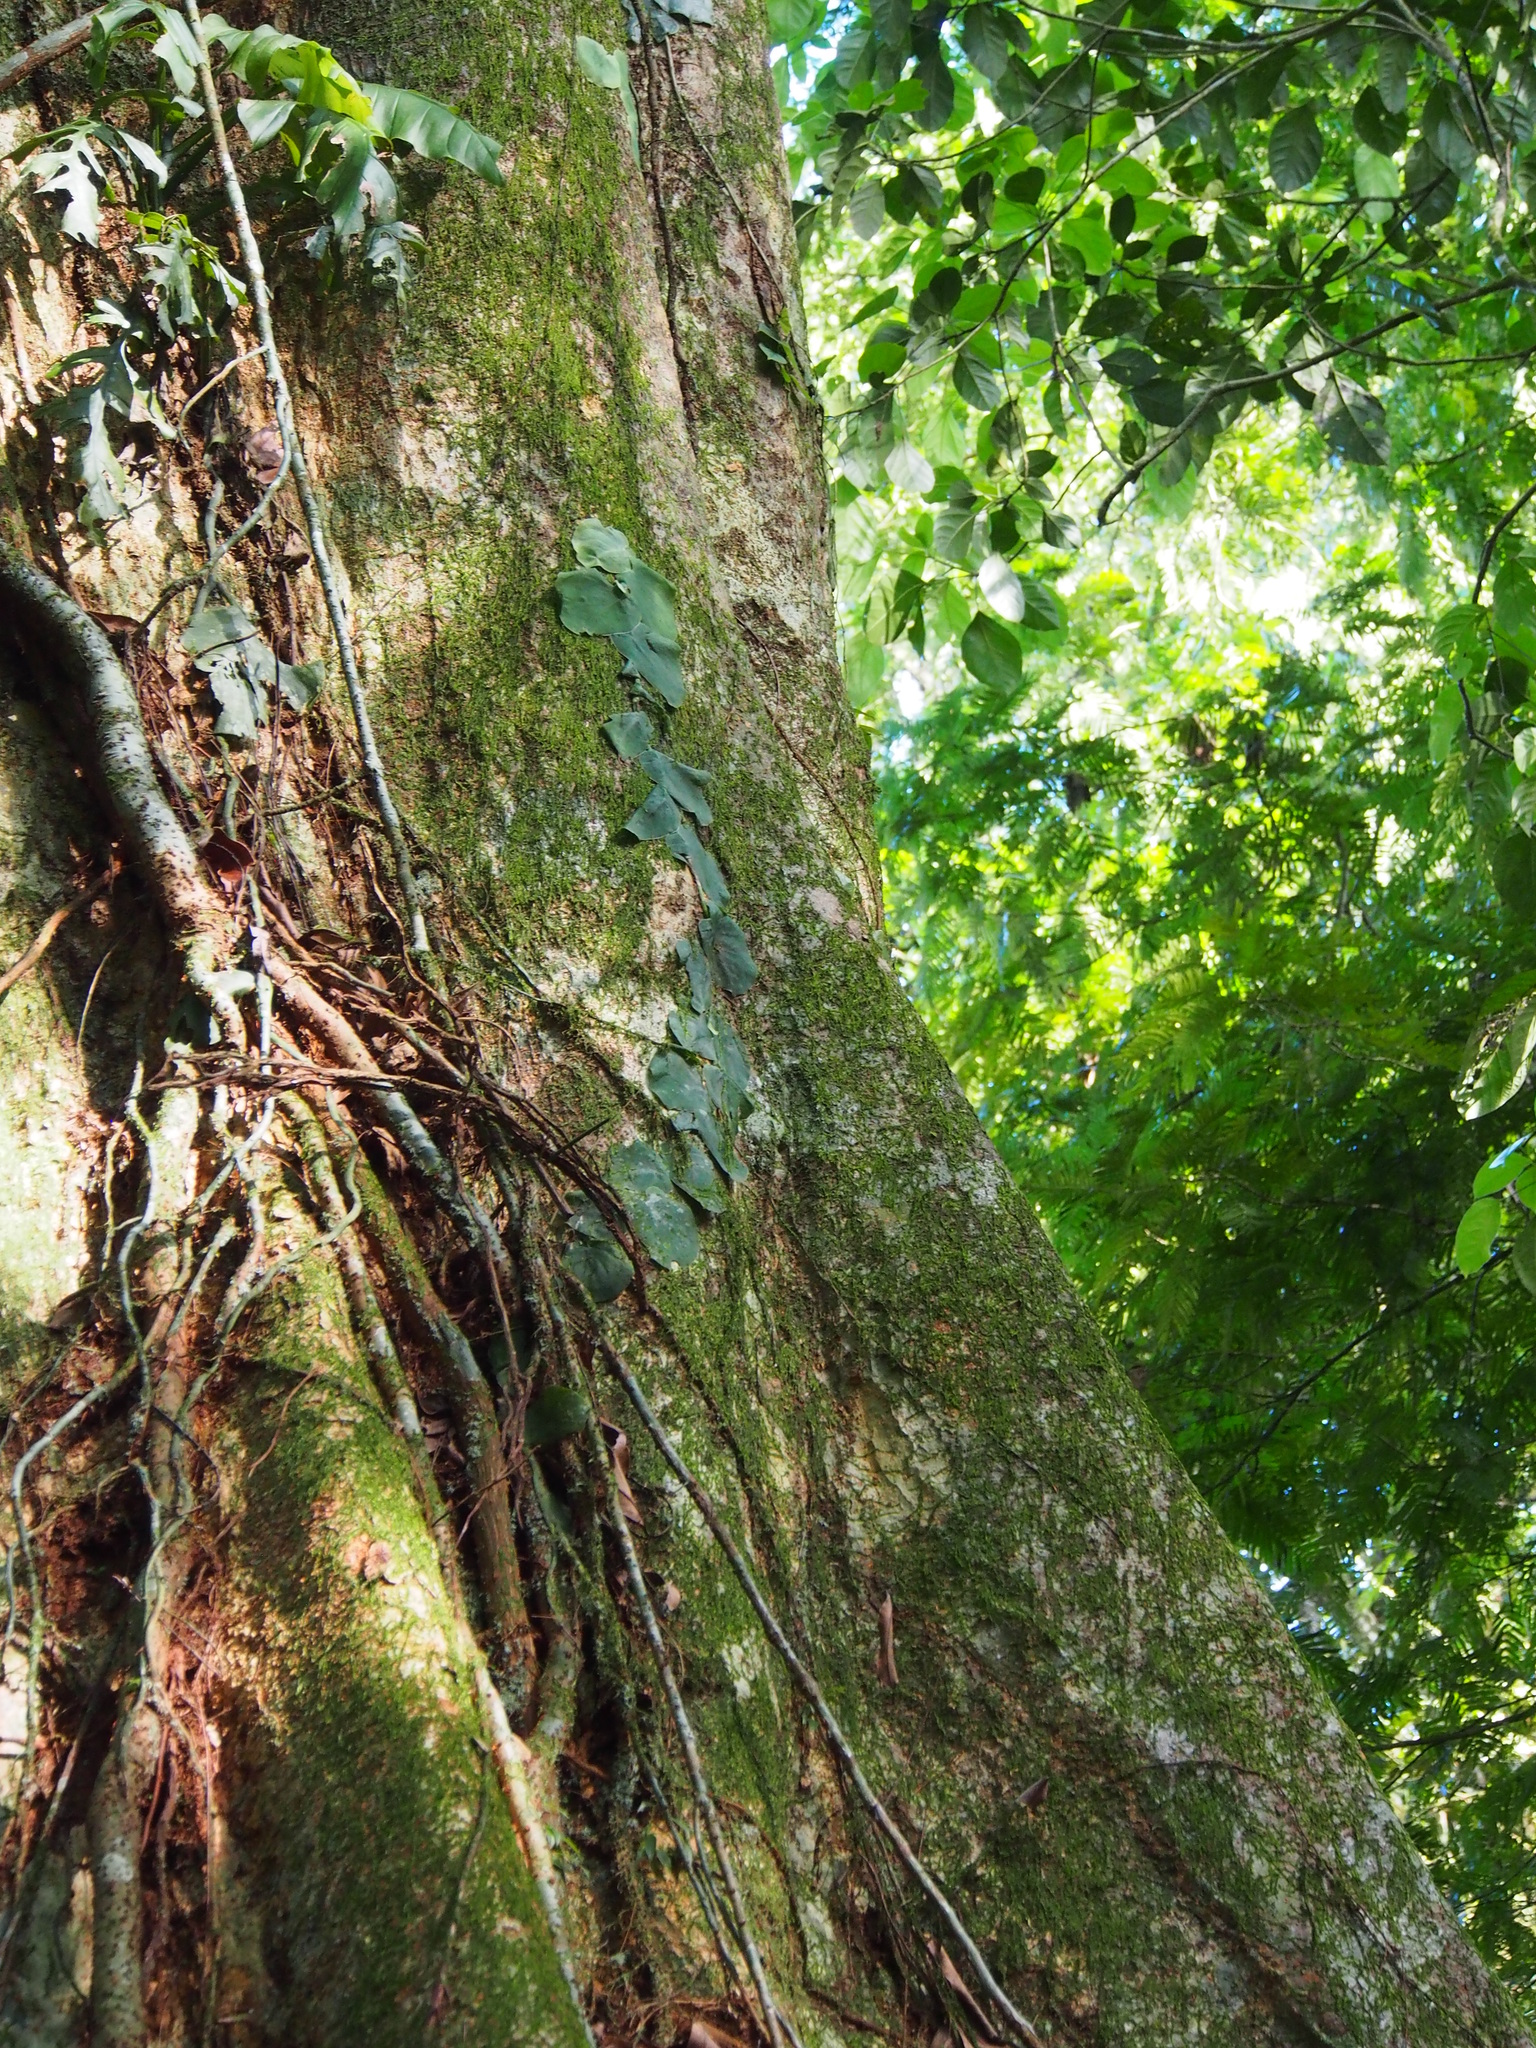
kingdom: Plantae
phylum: Tracheophyta
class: Magnoliopsida
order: Myrtales
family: Combretaceae
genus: Terminalia
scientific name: Terminalia oblonga
